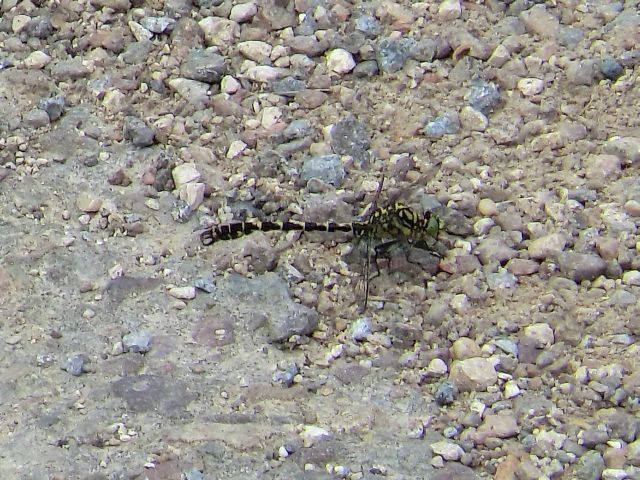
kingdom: Animalia
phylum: Arthropoda
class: Insecta
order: Odonata
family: Gomphidae
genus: Onychogomphus
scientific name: Onychogomphus forcipatus
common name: Small pincertail
